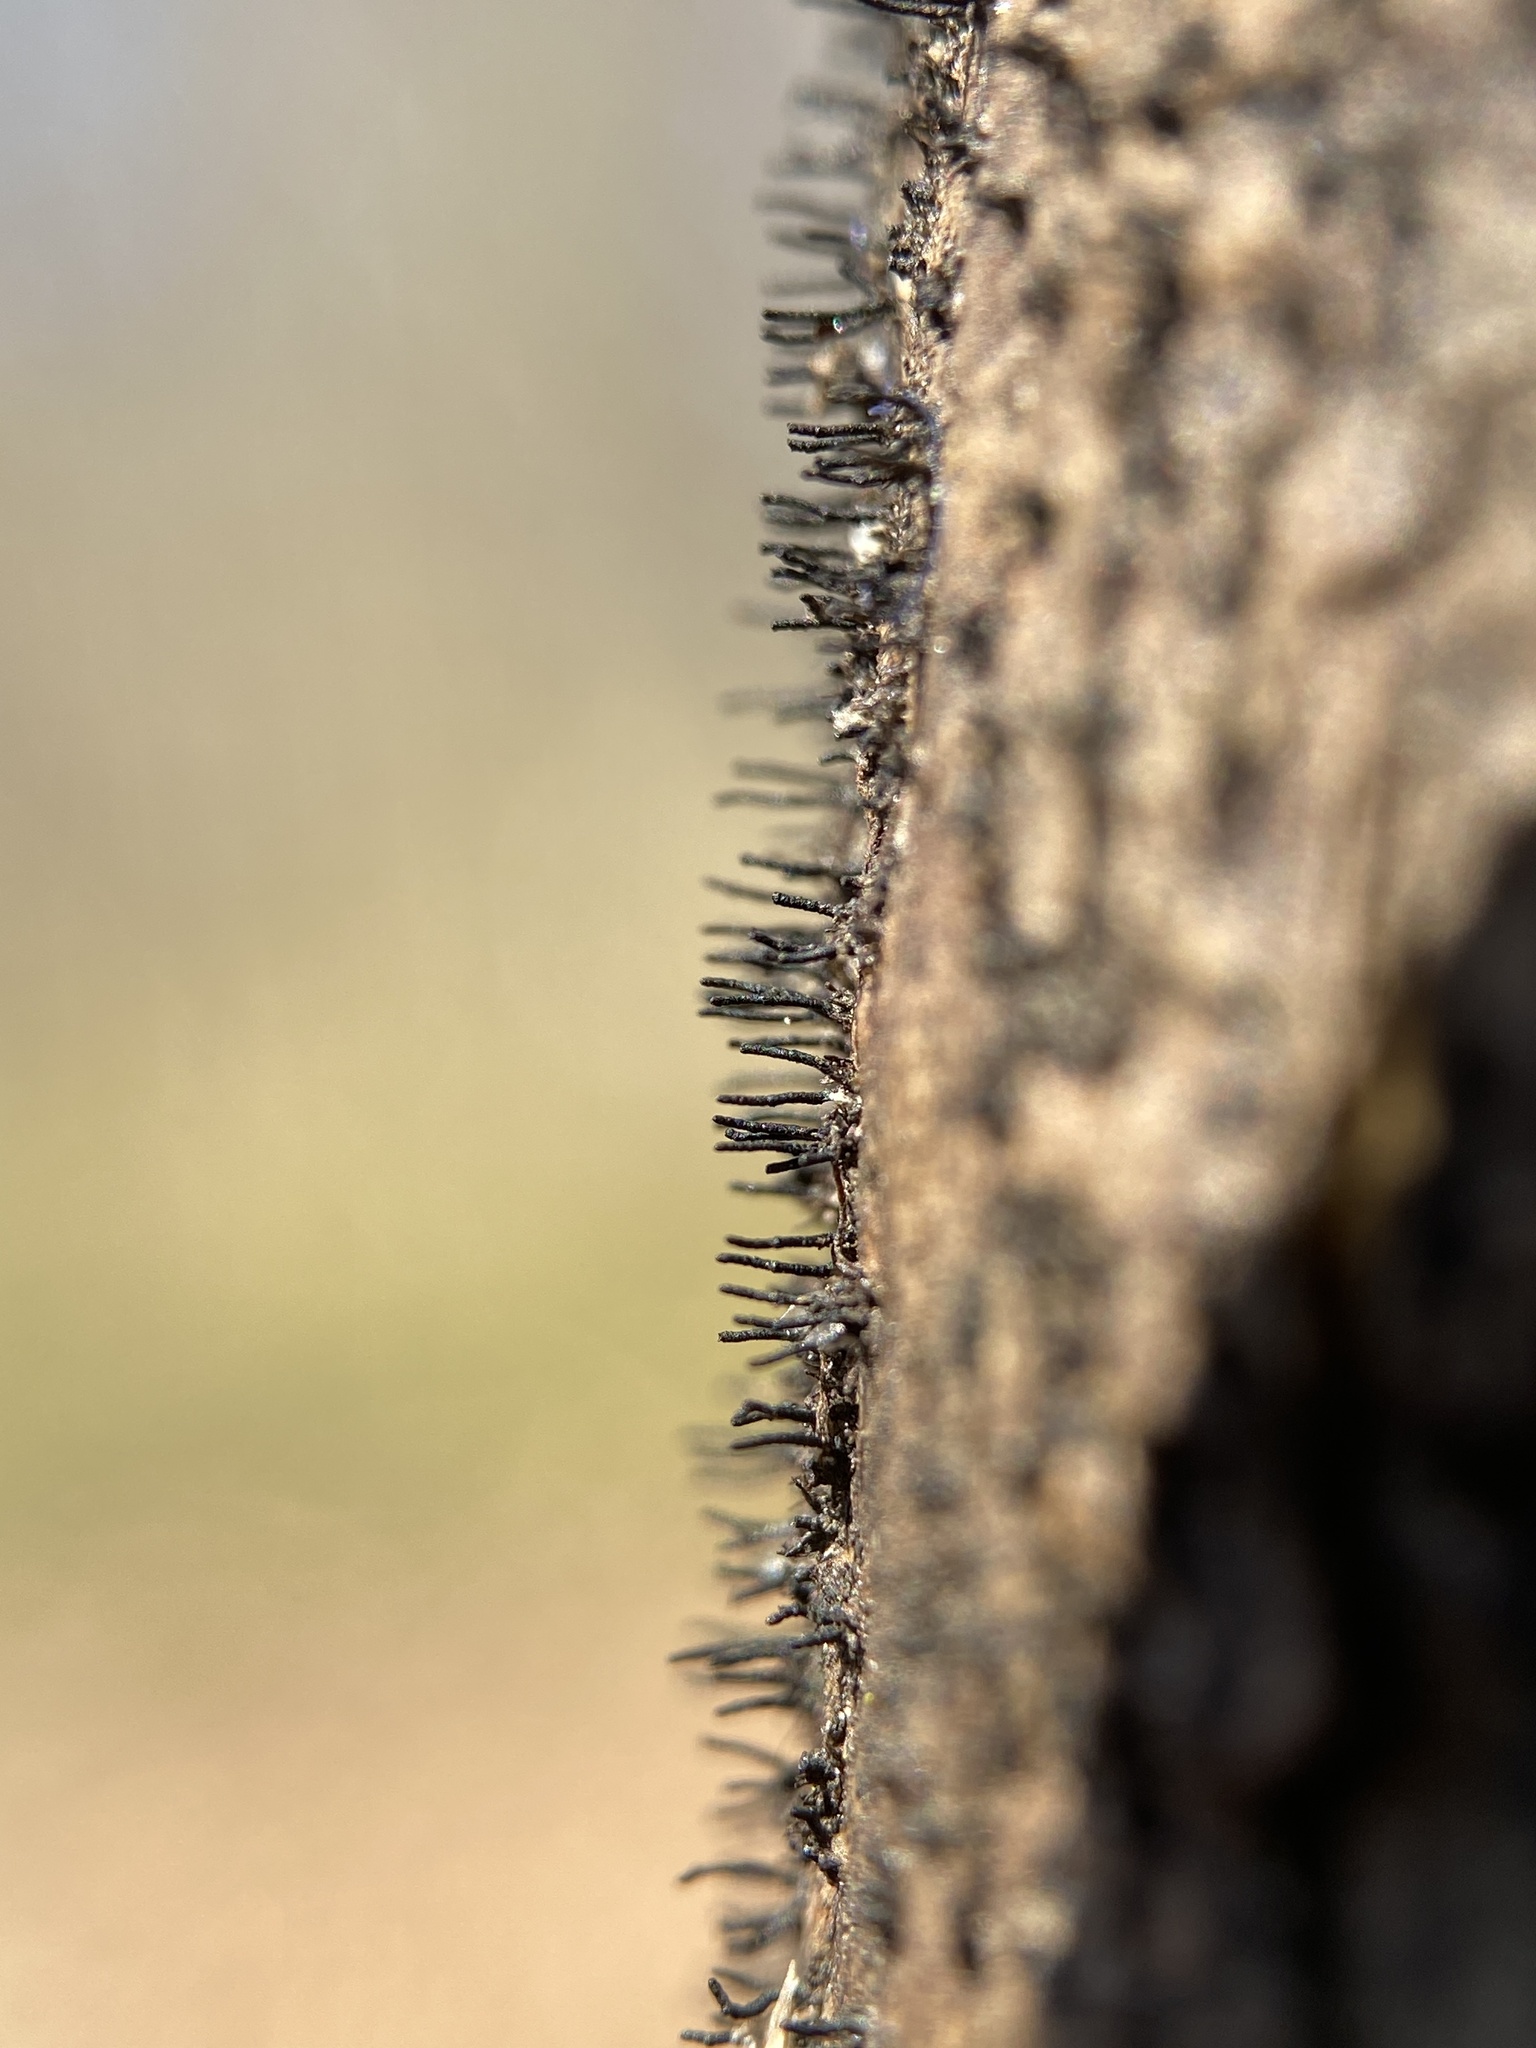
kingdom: Fungi
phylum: Ascomycota
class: Sordariomycetes
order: Xylariales
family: Diatrypaceae
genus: Peroneutypa
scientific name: Peroneutypa scoparia
